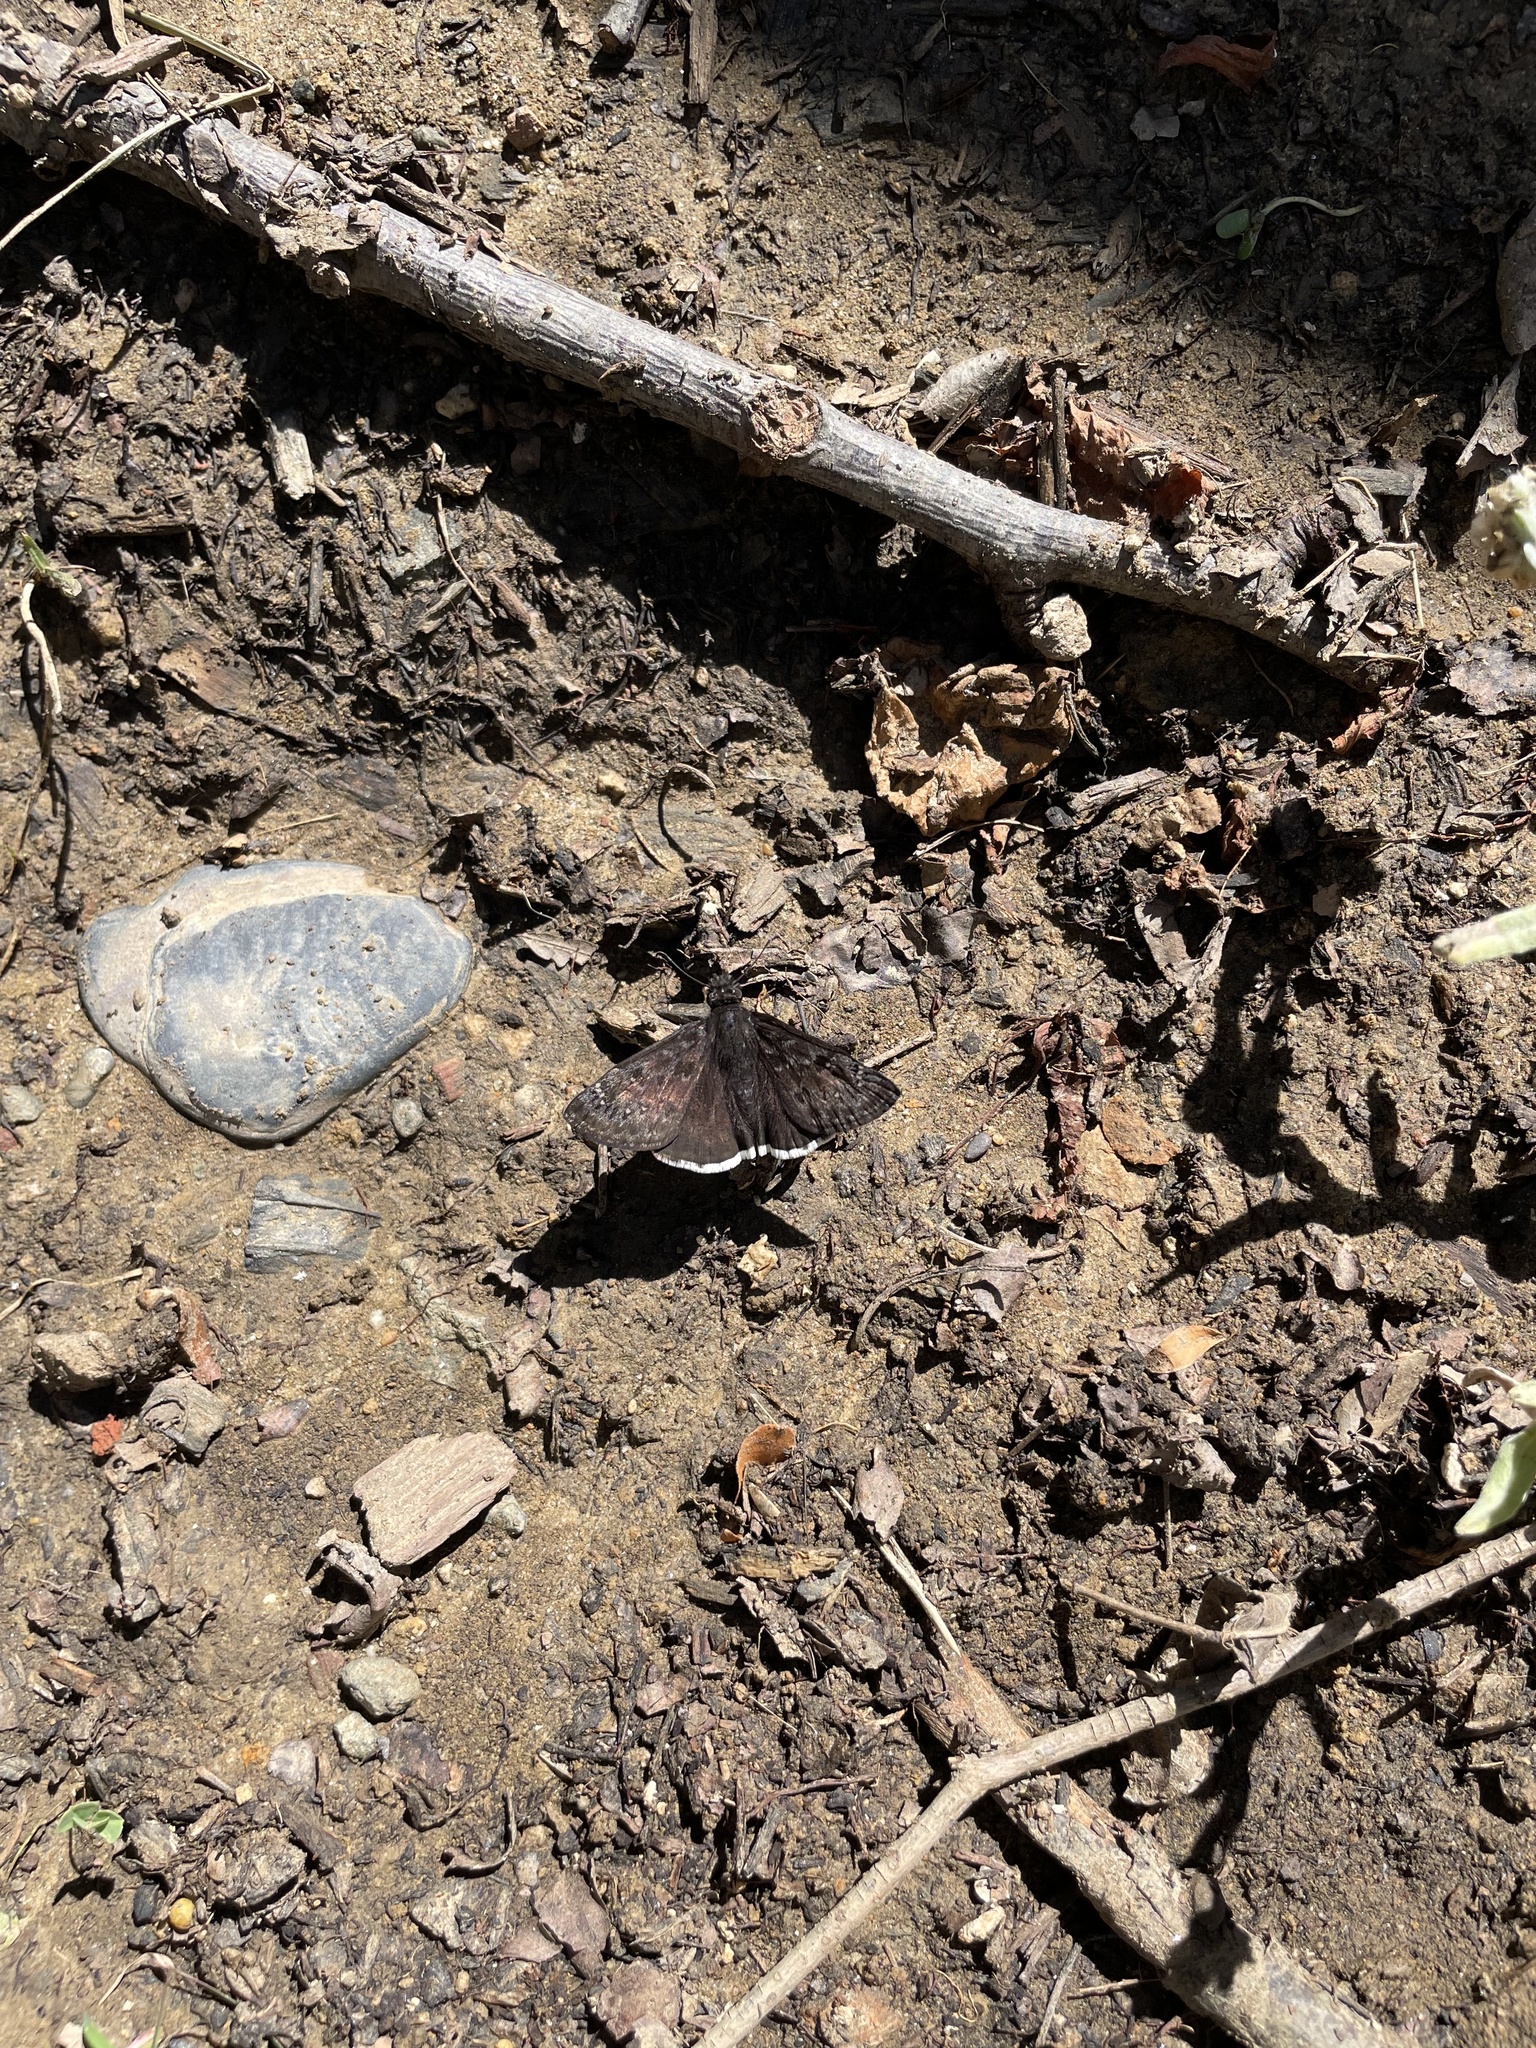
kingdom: Animalia
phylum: Arthropoda
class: Insecta
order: Lepidoptera
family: Hesperiidae
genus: Erynnis
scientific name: Erynnis tristis
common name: Mournful duskywing
